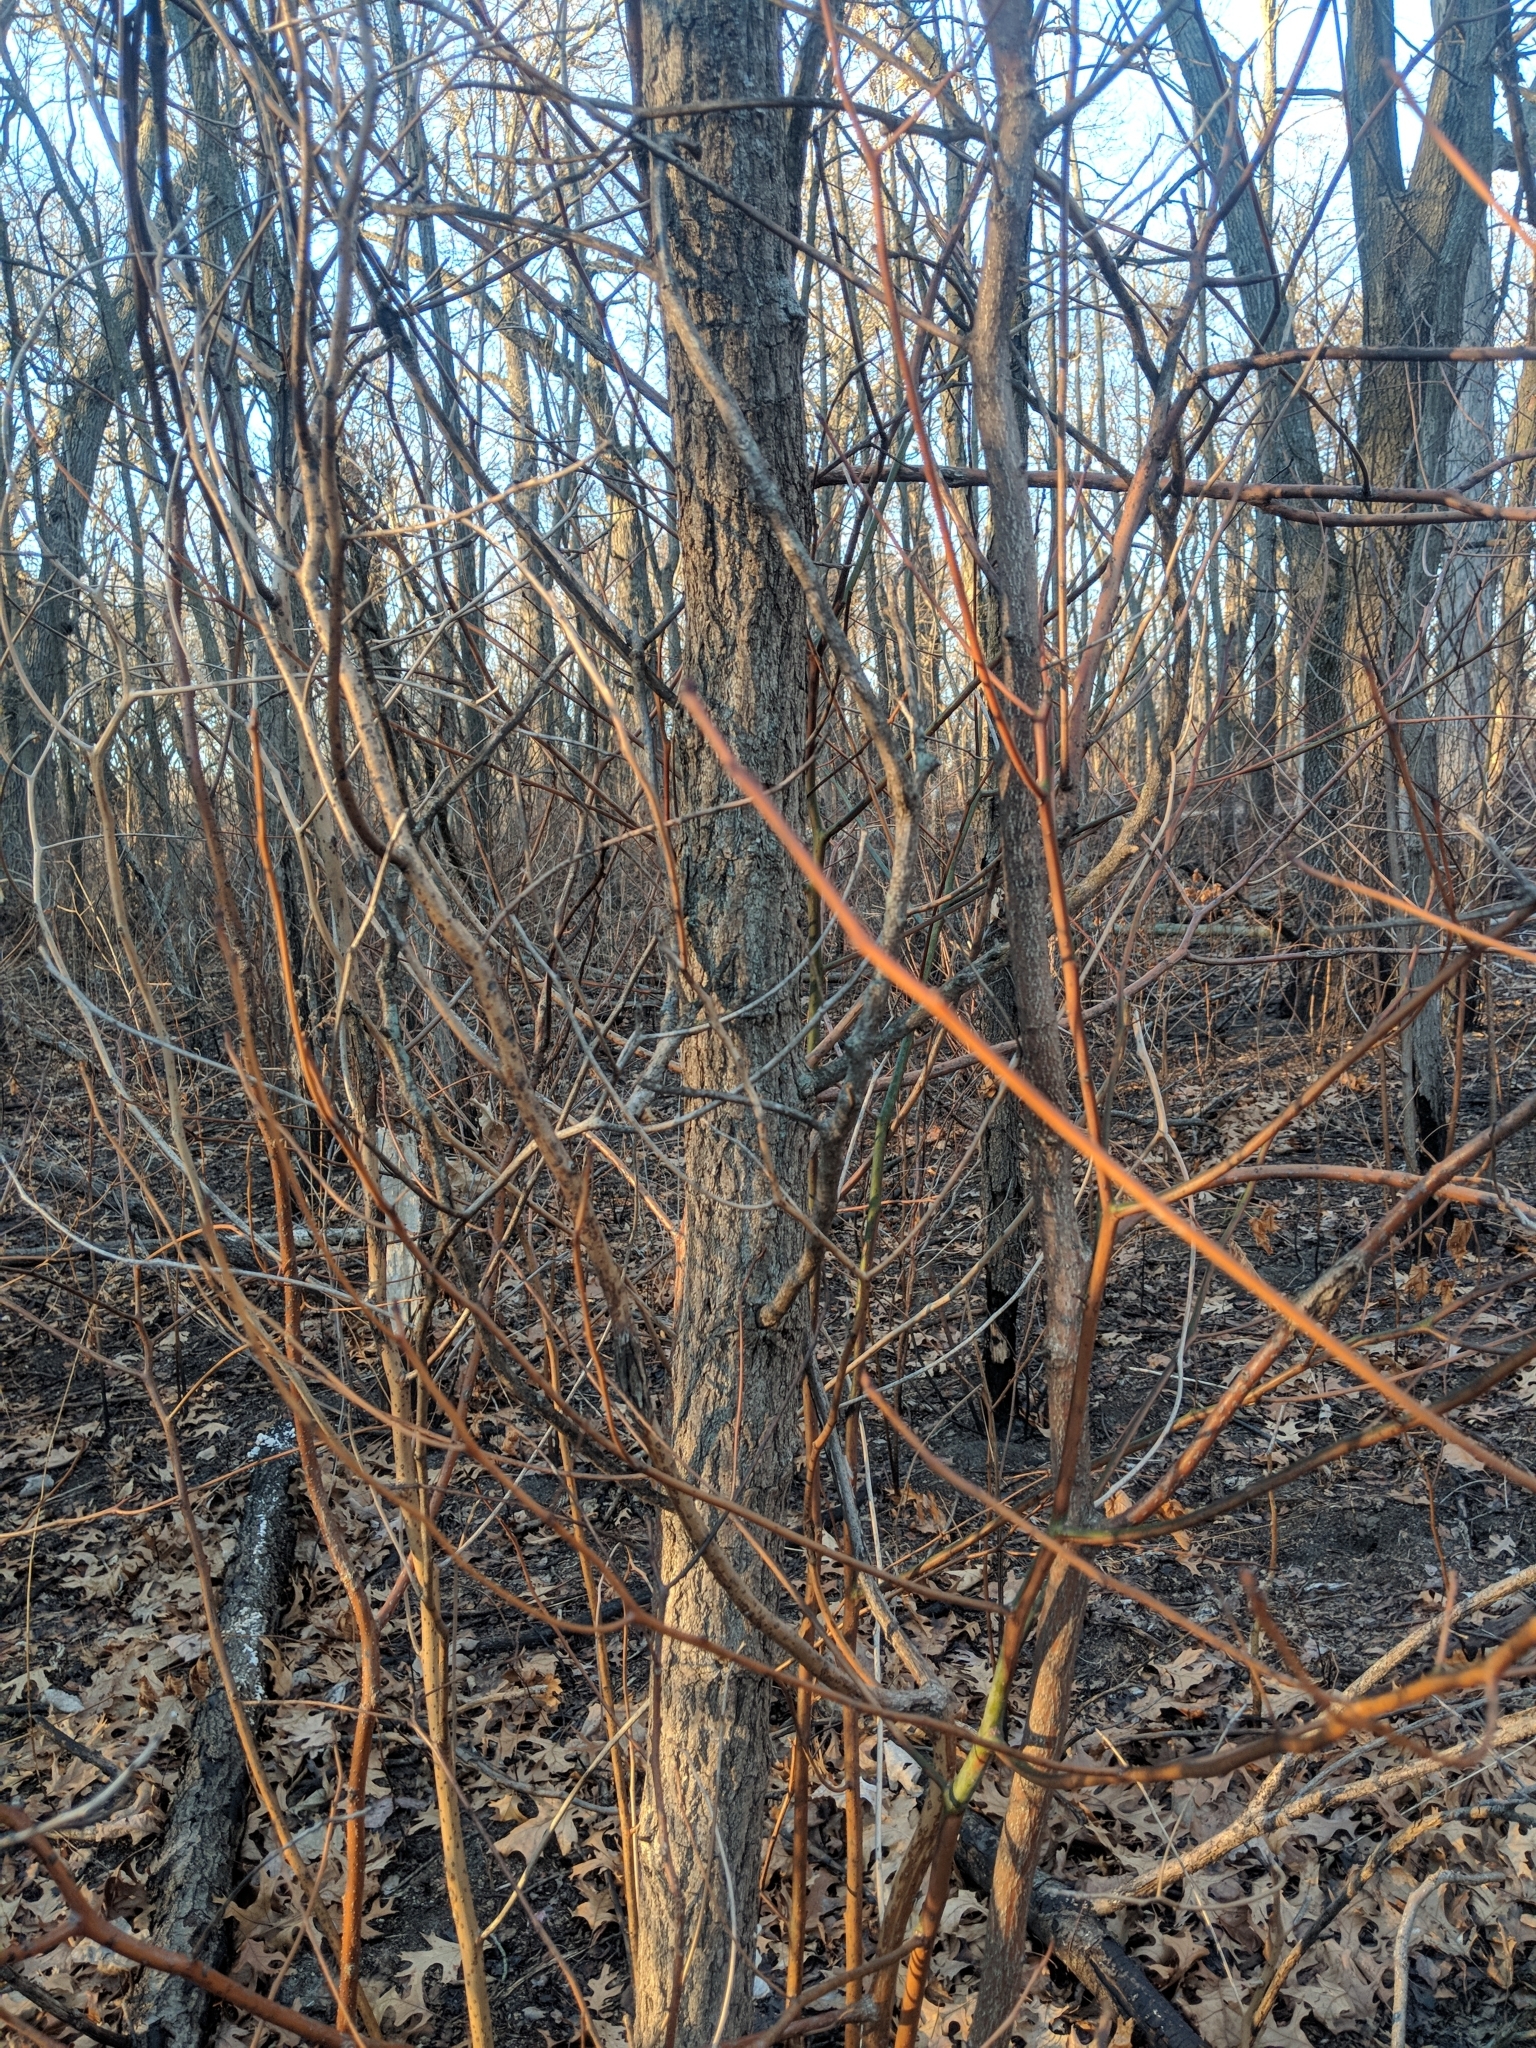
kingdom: Plantae
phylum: Tracheophyta
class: Magnoliopsida
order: Laurales
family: Lauraceae
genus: Sassafras
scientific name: Sassafras albidum
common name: Sassafras
